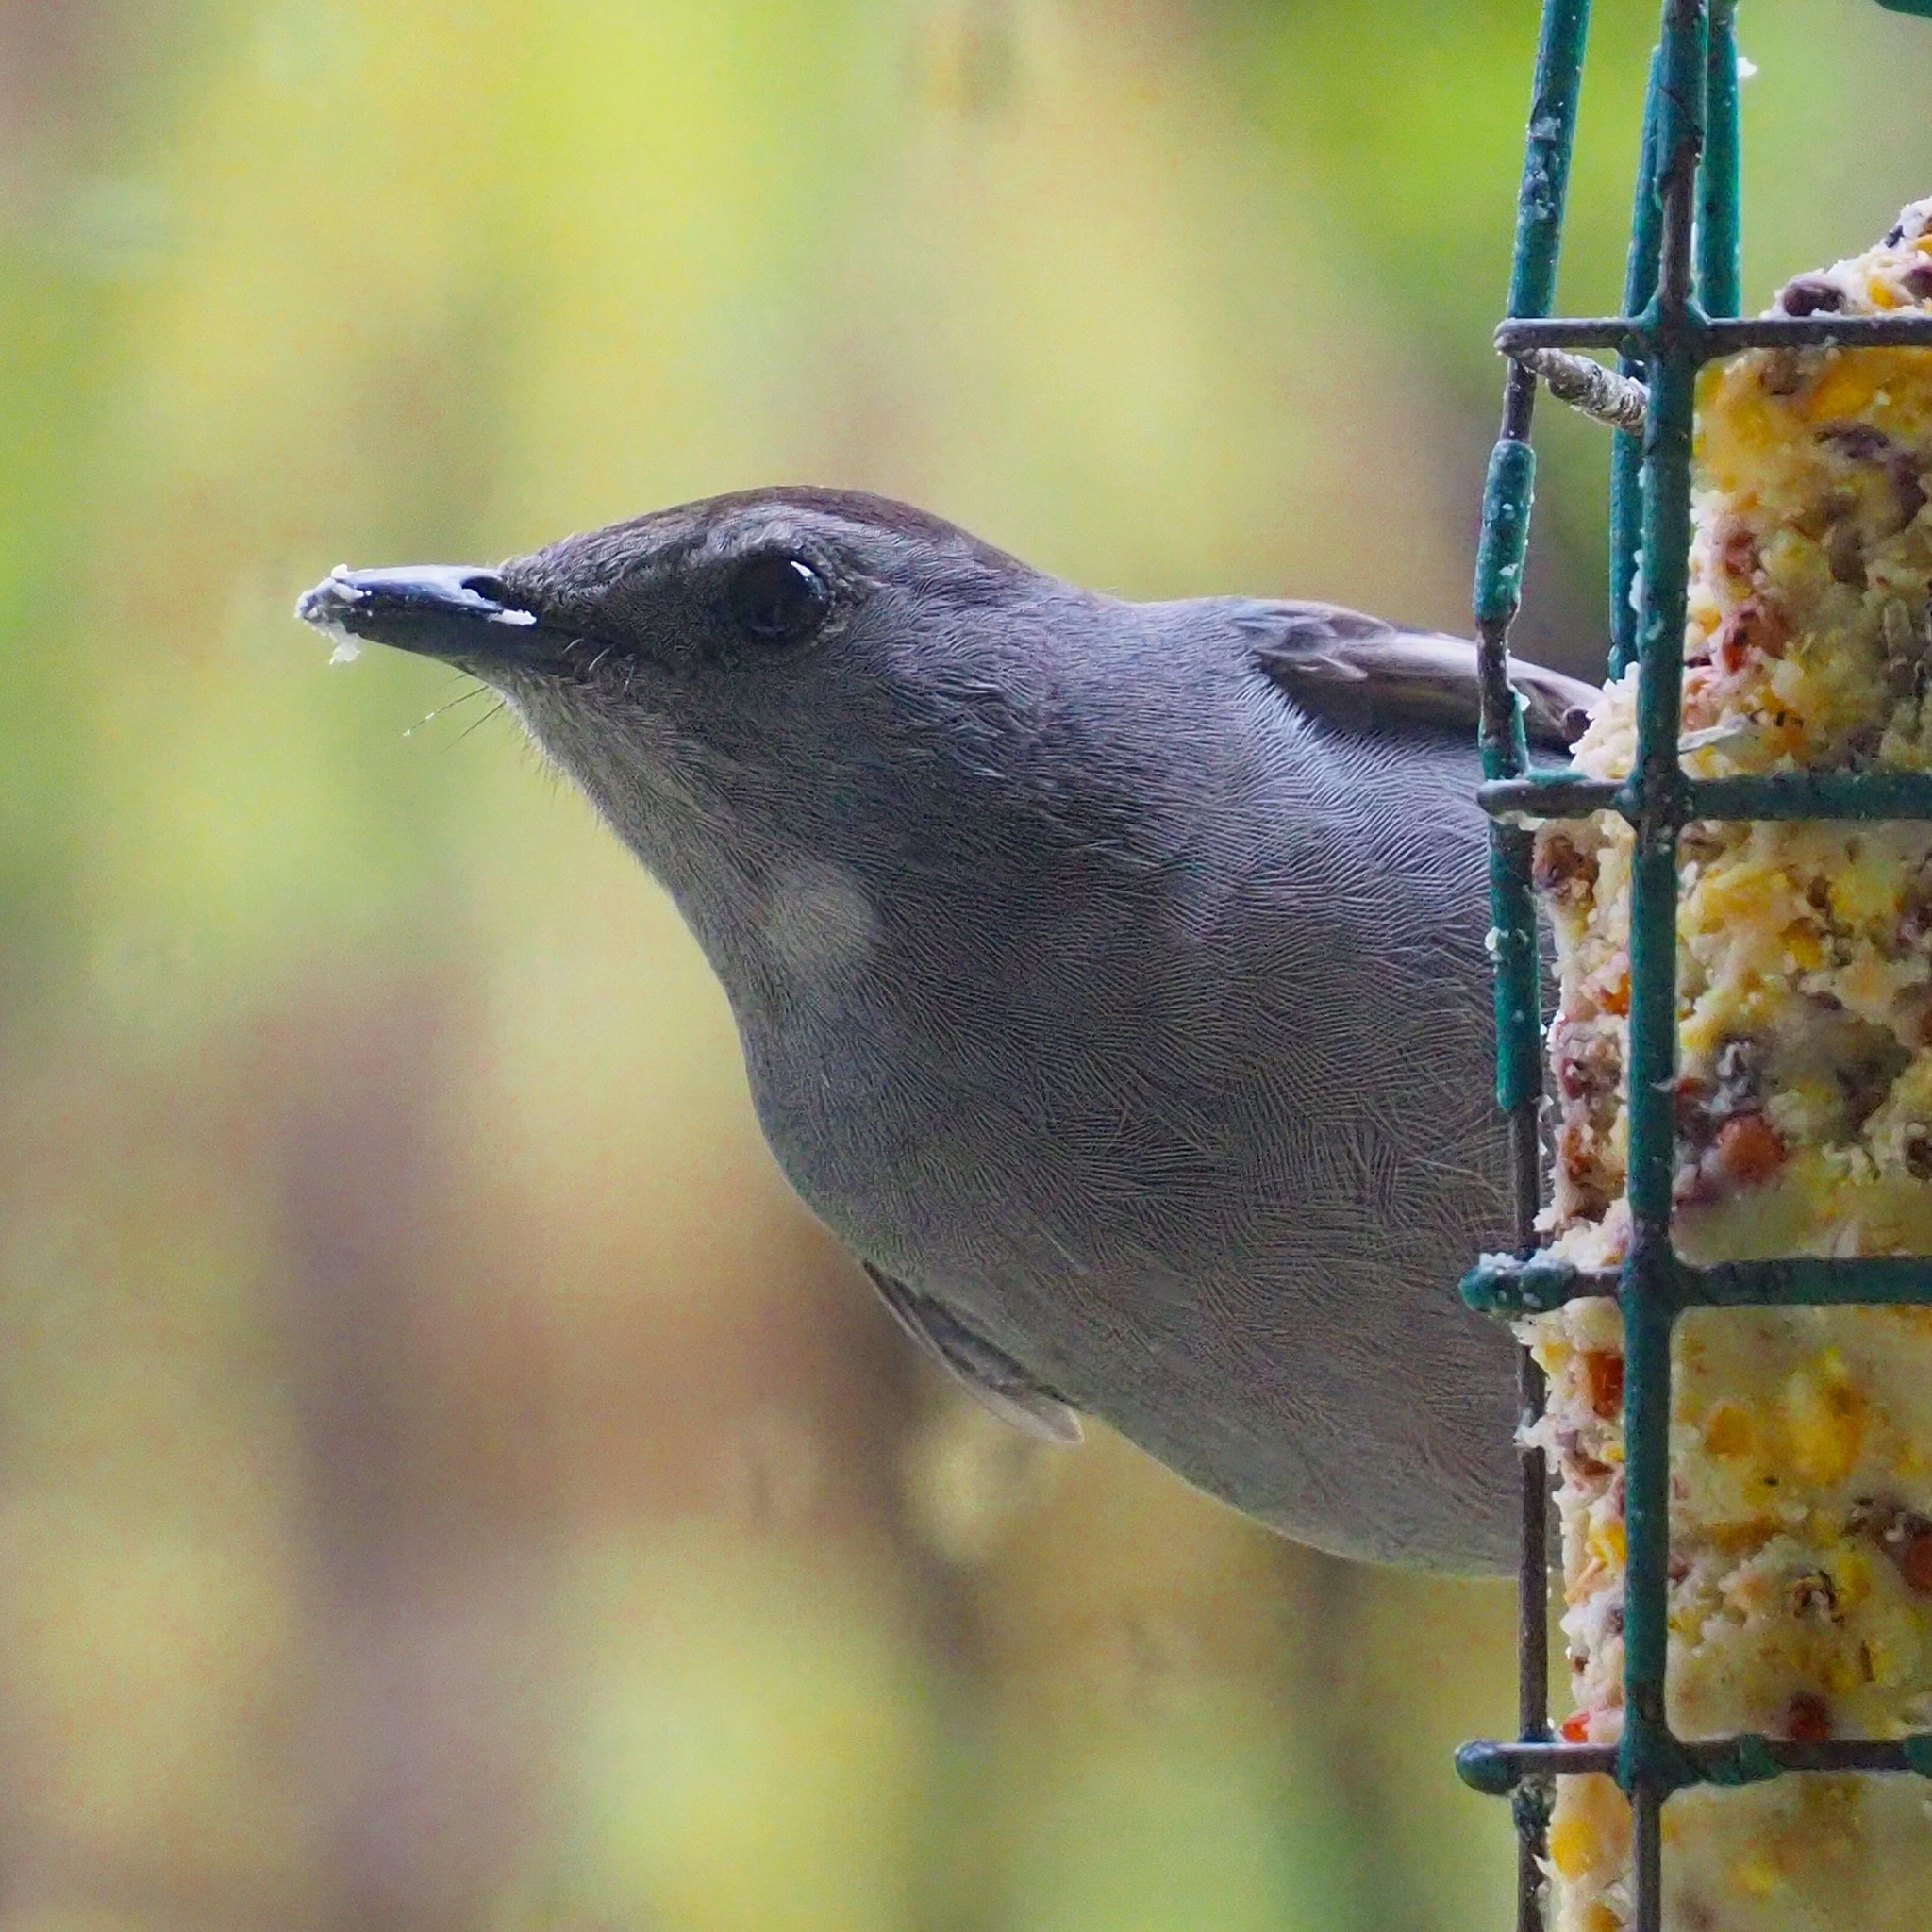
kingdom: Animalia
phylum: Chordata
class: Aves
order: Passeriformes
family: Mimidae
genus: Dumetella
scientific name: Dumetella carolinensis
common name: Gray catbird
